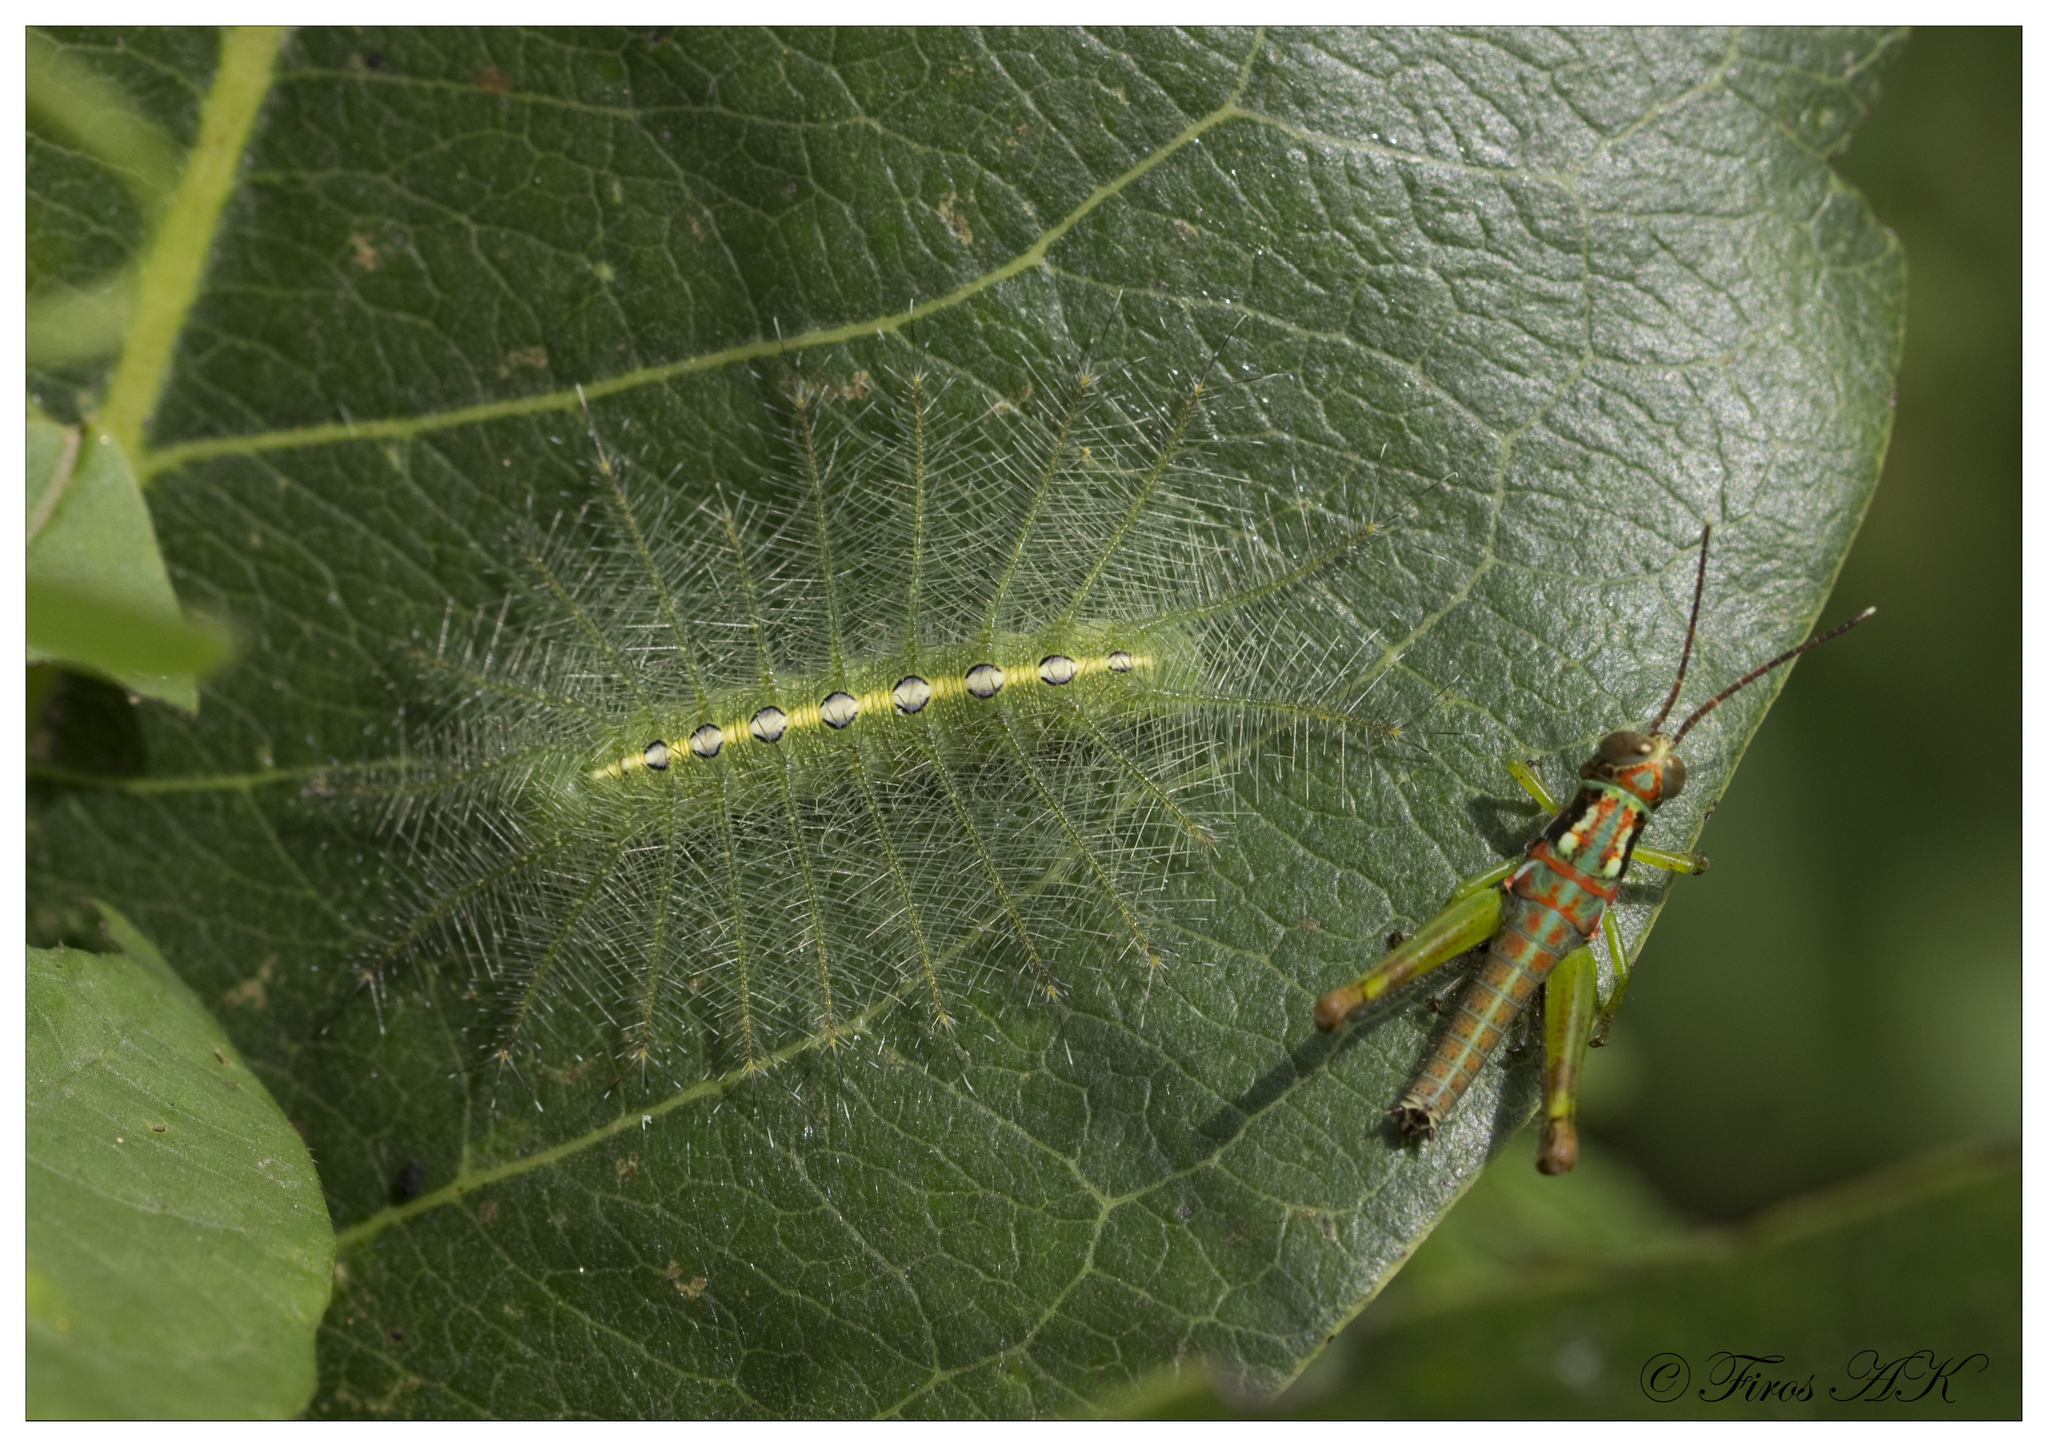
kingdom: Animalia
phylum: Arthropoda
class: Insecta
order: Lepidoptera
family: Nymphalidae
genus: Euthalia
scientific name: Euthalia nais
